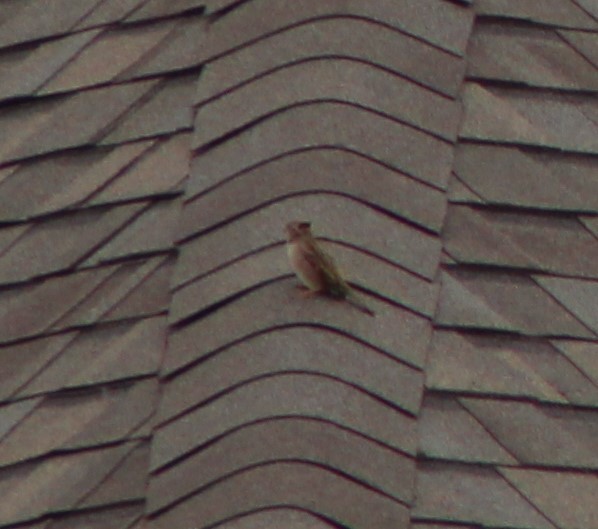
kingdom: Animalia
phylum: Chordata
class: Aves
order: Passeriformes
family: Passeridae
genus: Passer
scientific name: Passer domesticus
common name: House sparrow
